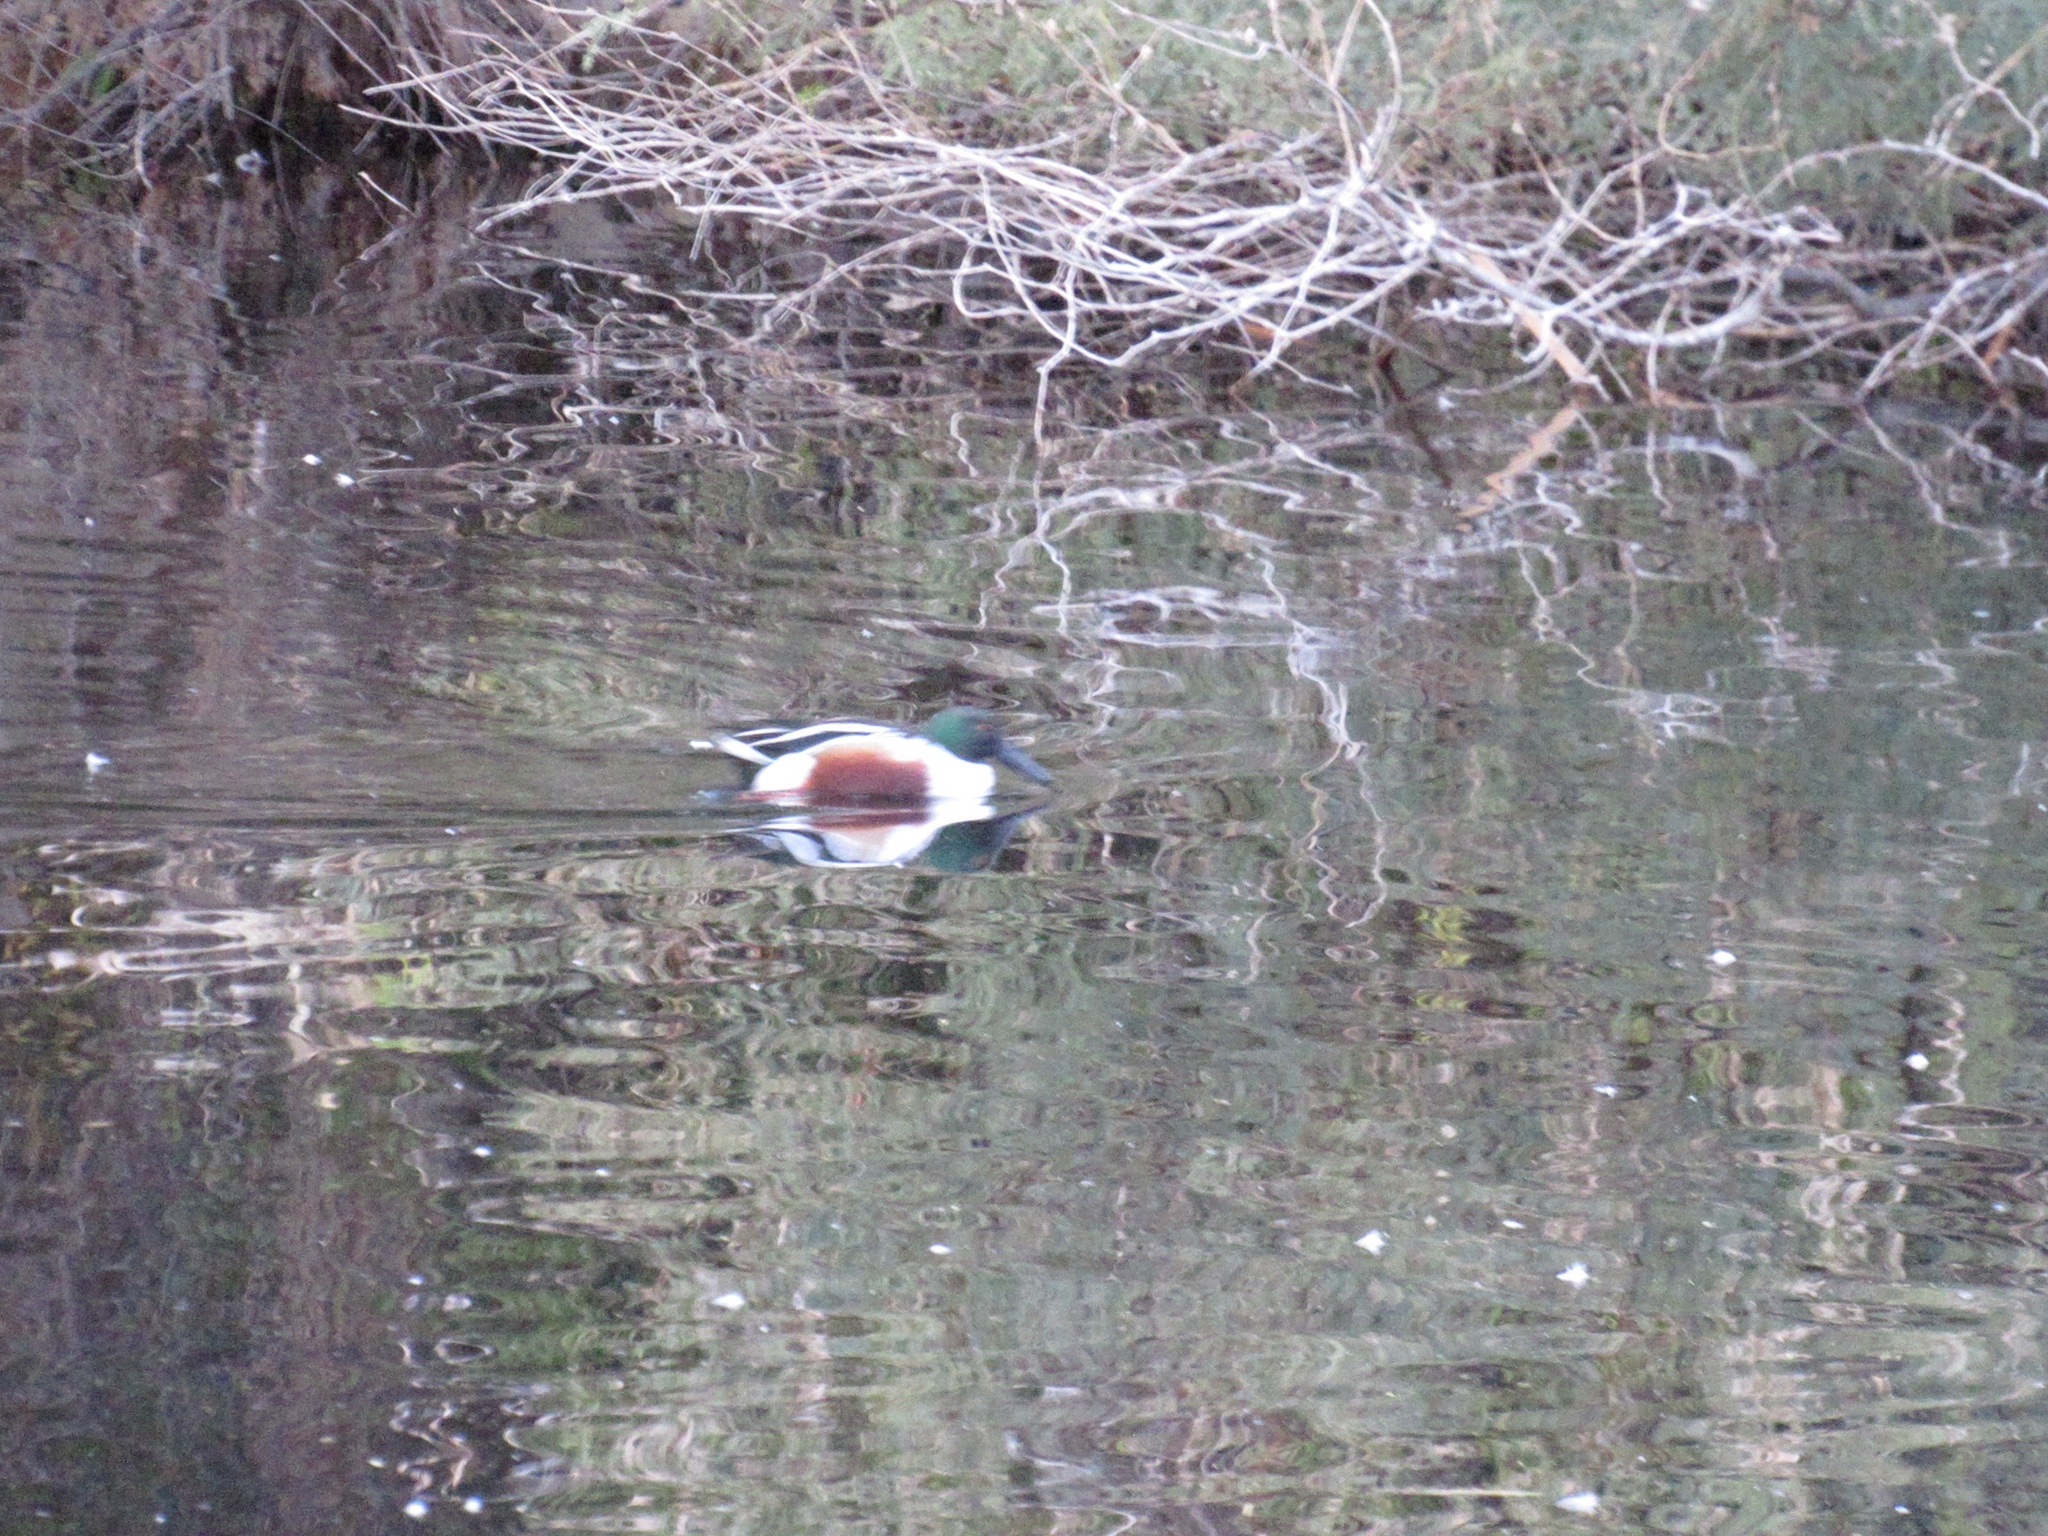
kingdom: Animalia
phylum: Chordata
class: Aves
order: Anseriformes
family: Anatidae
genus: Spatula
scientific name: Spatula clypeata
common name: Northern shoveler
